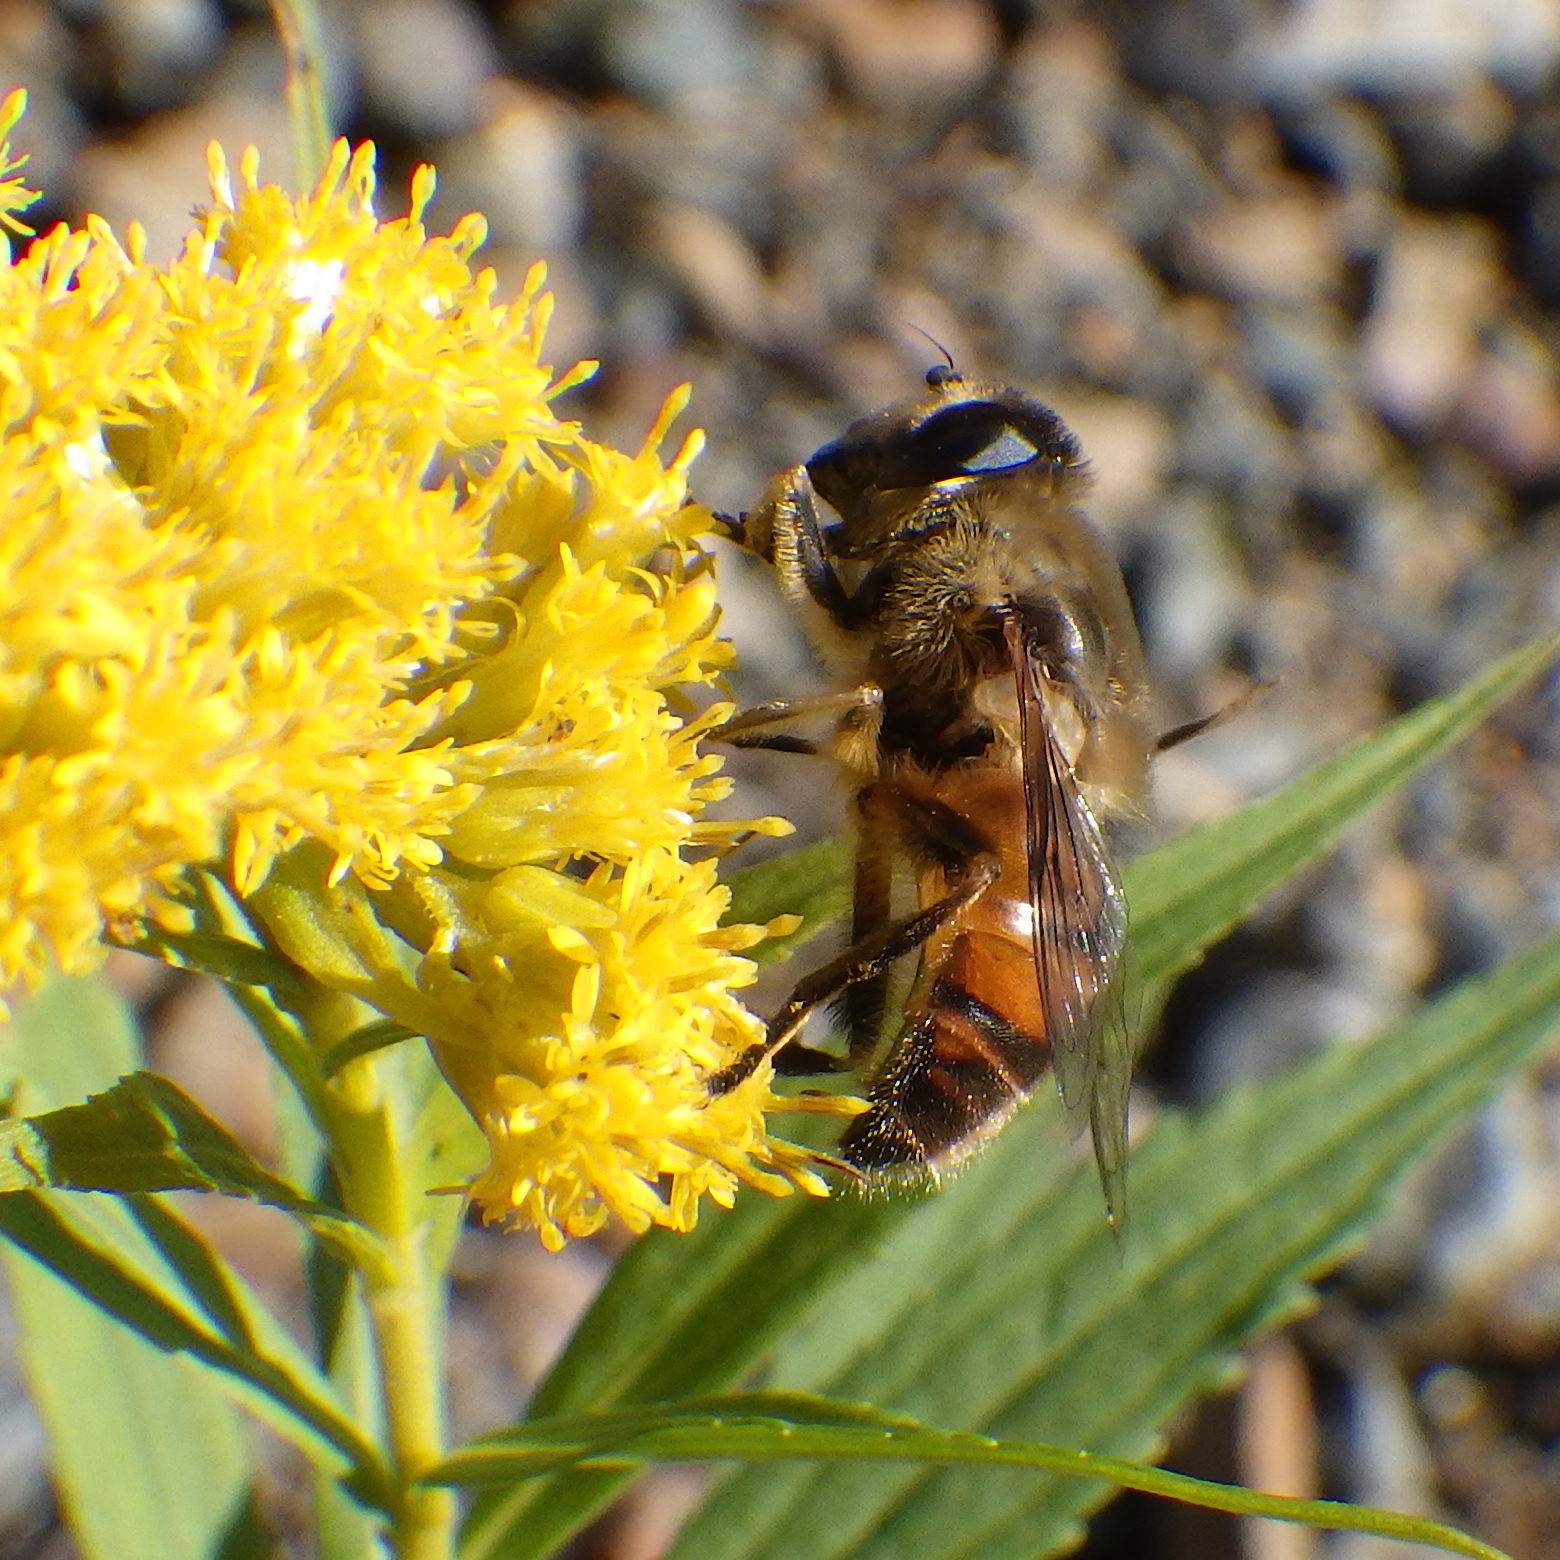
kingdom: Animalia
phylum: Arthropoda
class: Insecta
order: Diptera
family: Syrphidae
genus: Eristalis
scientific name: Eristalis tenax
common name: Drone fly
